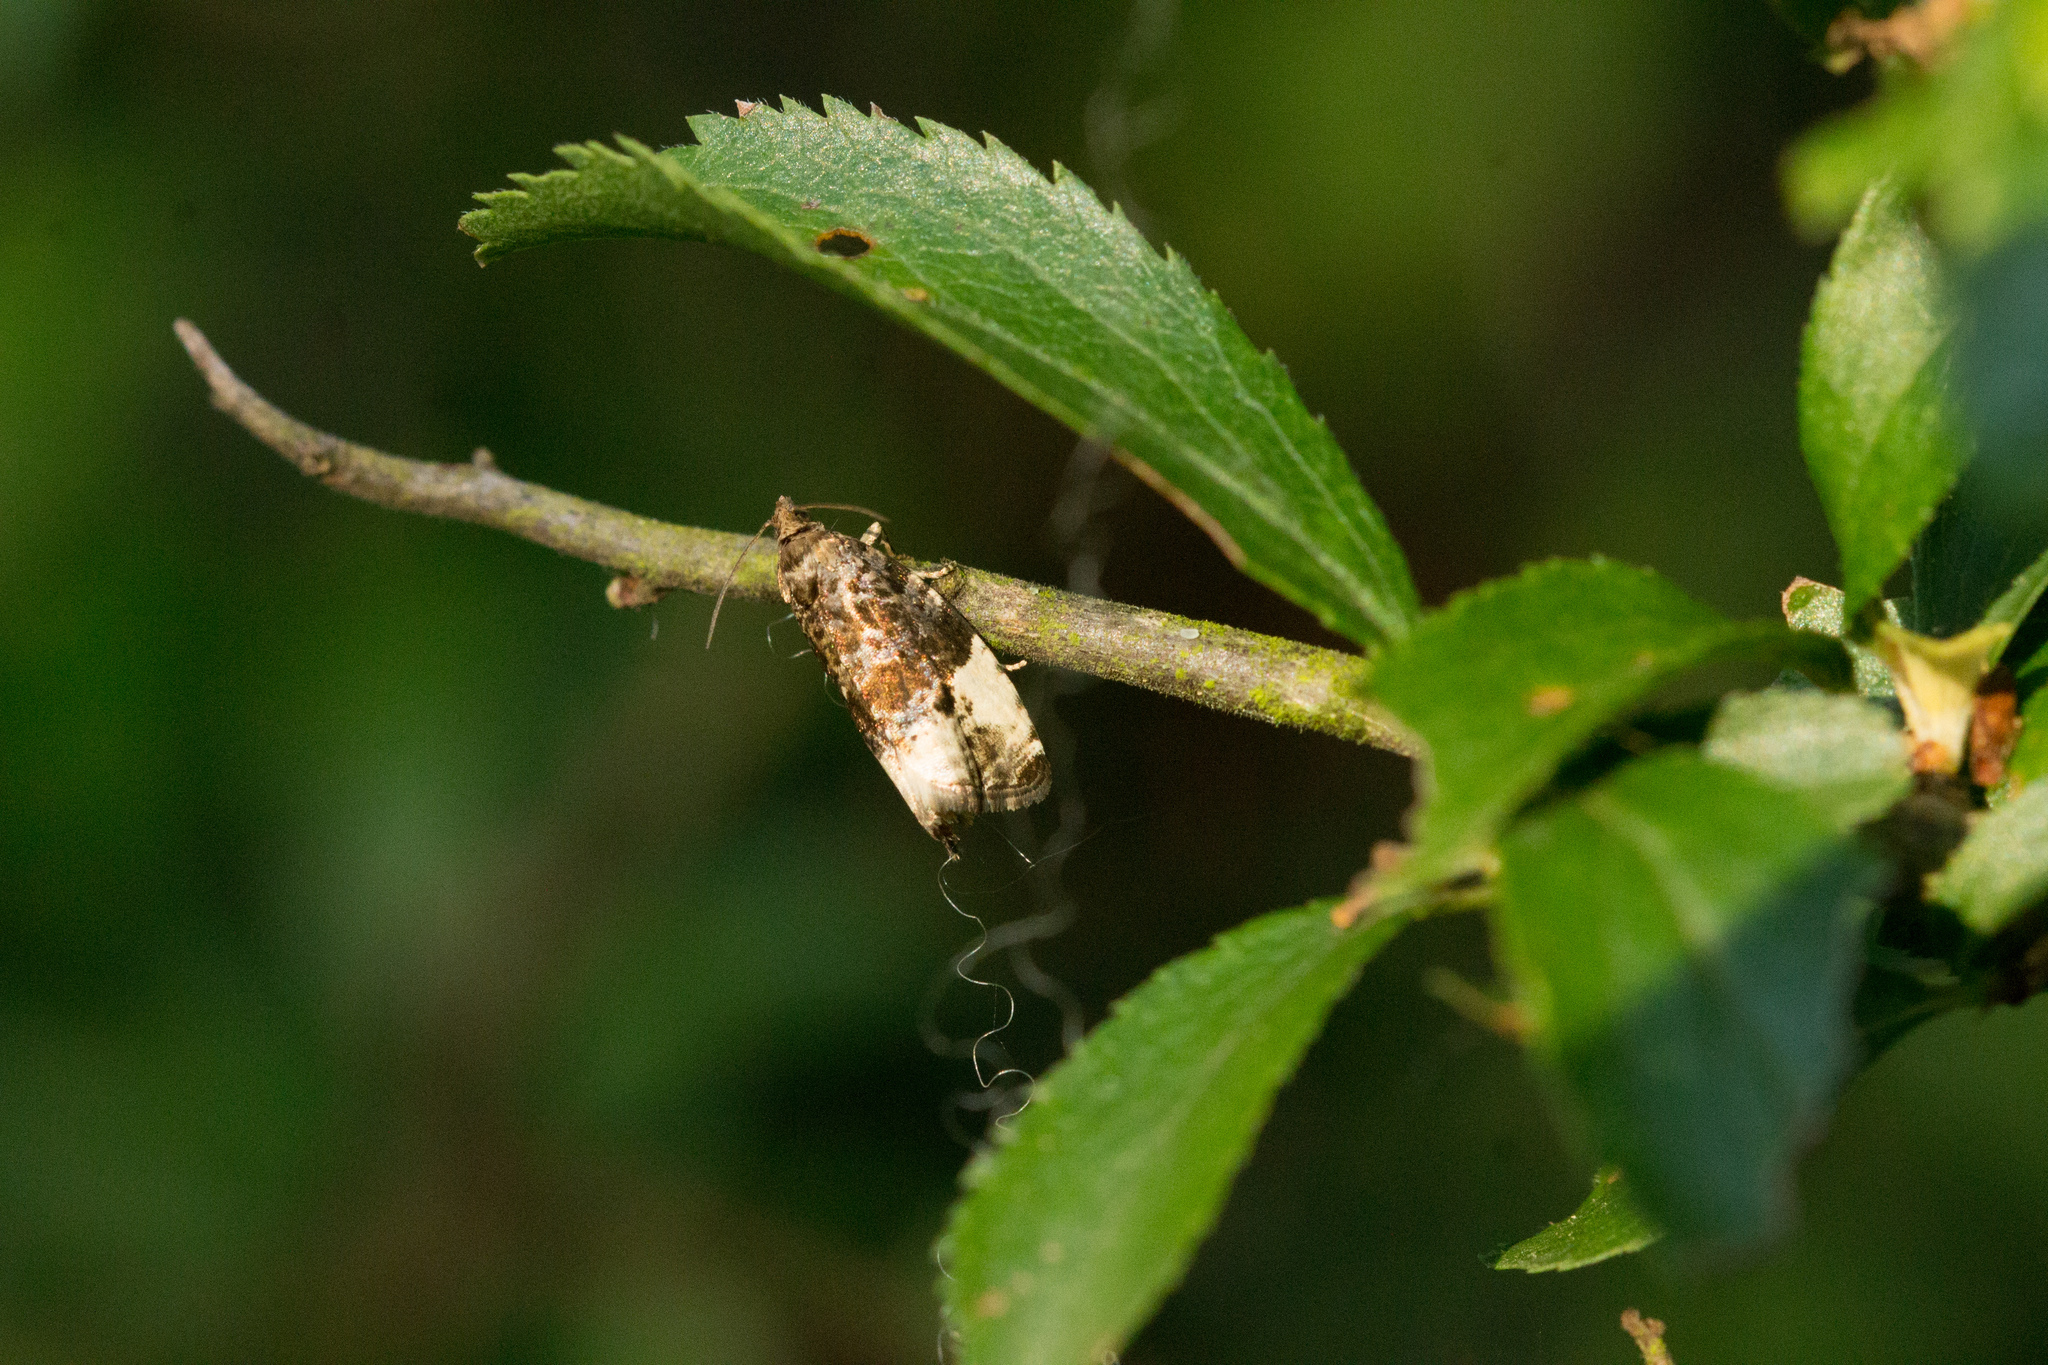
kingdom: Animalia
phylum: Arthropoda
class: Insecta
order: Lepidoptera
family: Tortricidae
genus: Hedya
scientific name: Hedya pruniana
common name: Plum tortrix
